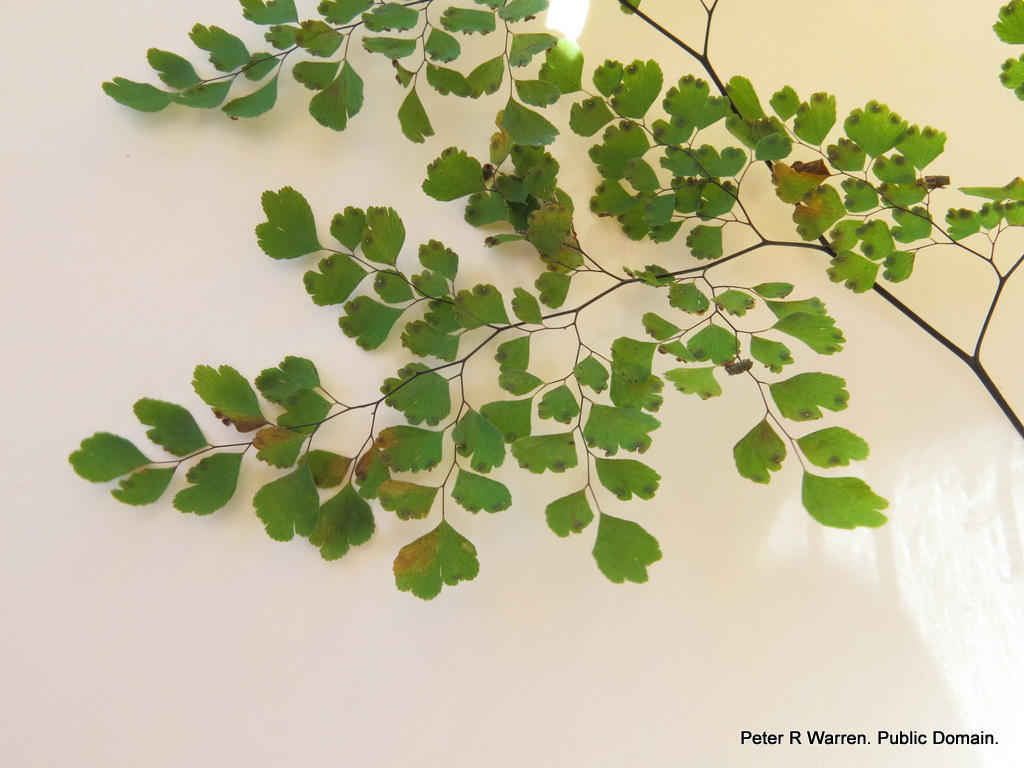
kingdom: Plantae
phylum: Tracheophyta
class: Polypodiopsida
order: Polypodiales
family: Pteridaceae
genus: Adiantum
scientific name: Adiantum raddianum
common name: Delta maidenhair fern
